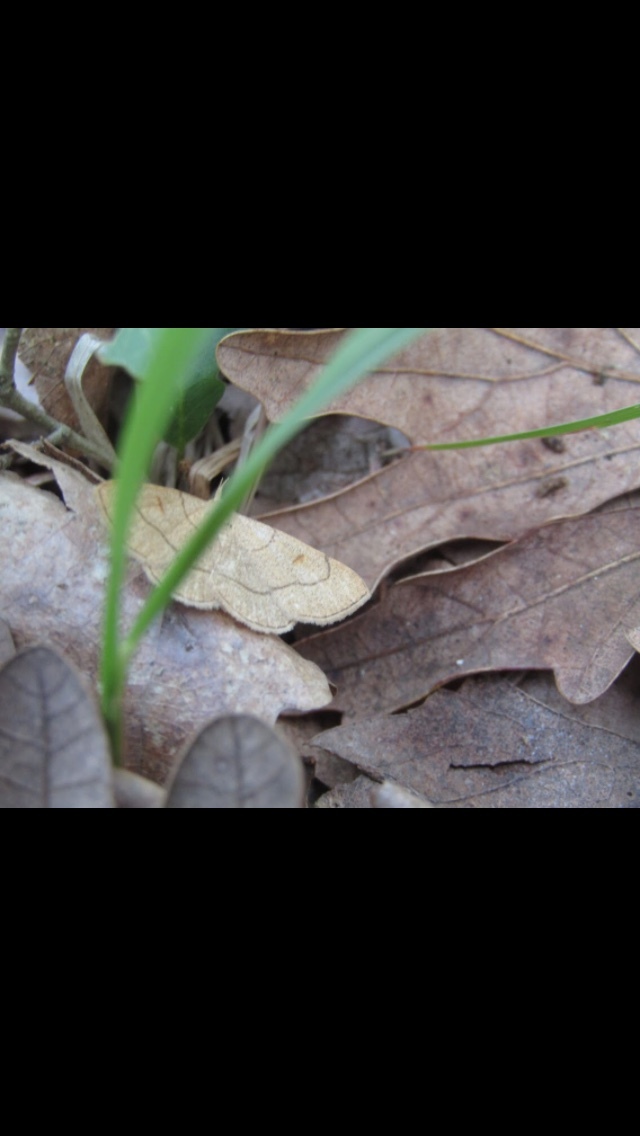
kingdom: Animalia
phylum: Arthropoda
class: Insecta
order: Lepidoptera
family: Erebidae
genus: Paracolax
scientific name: Paracolax tristalis
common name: Clay fan-foot
